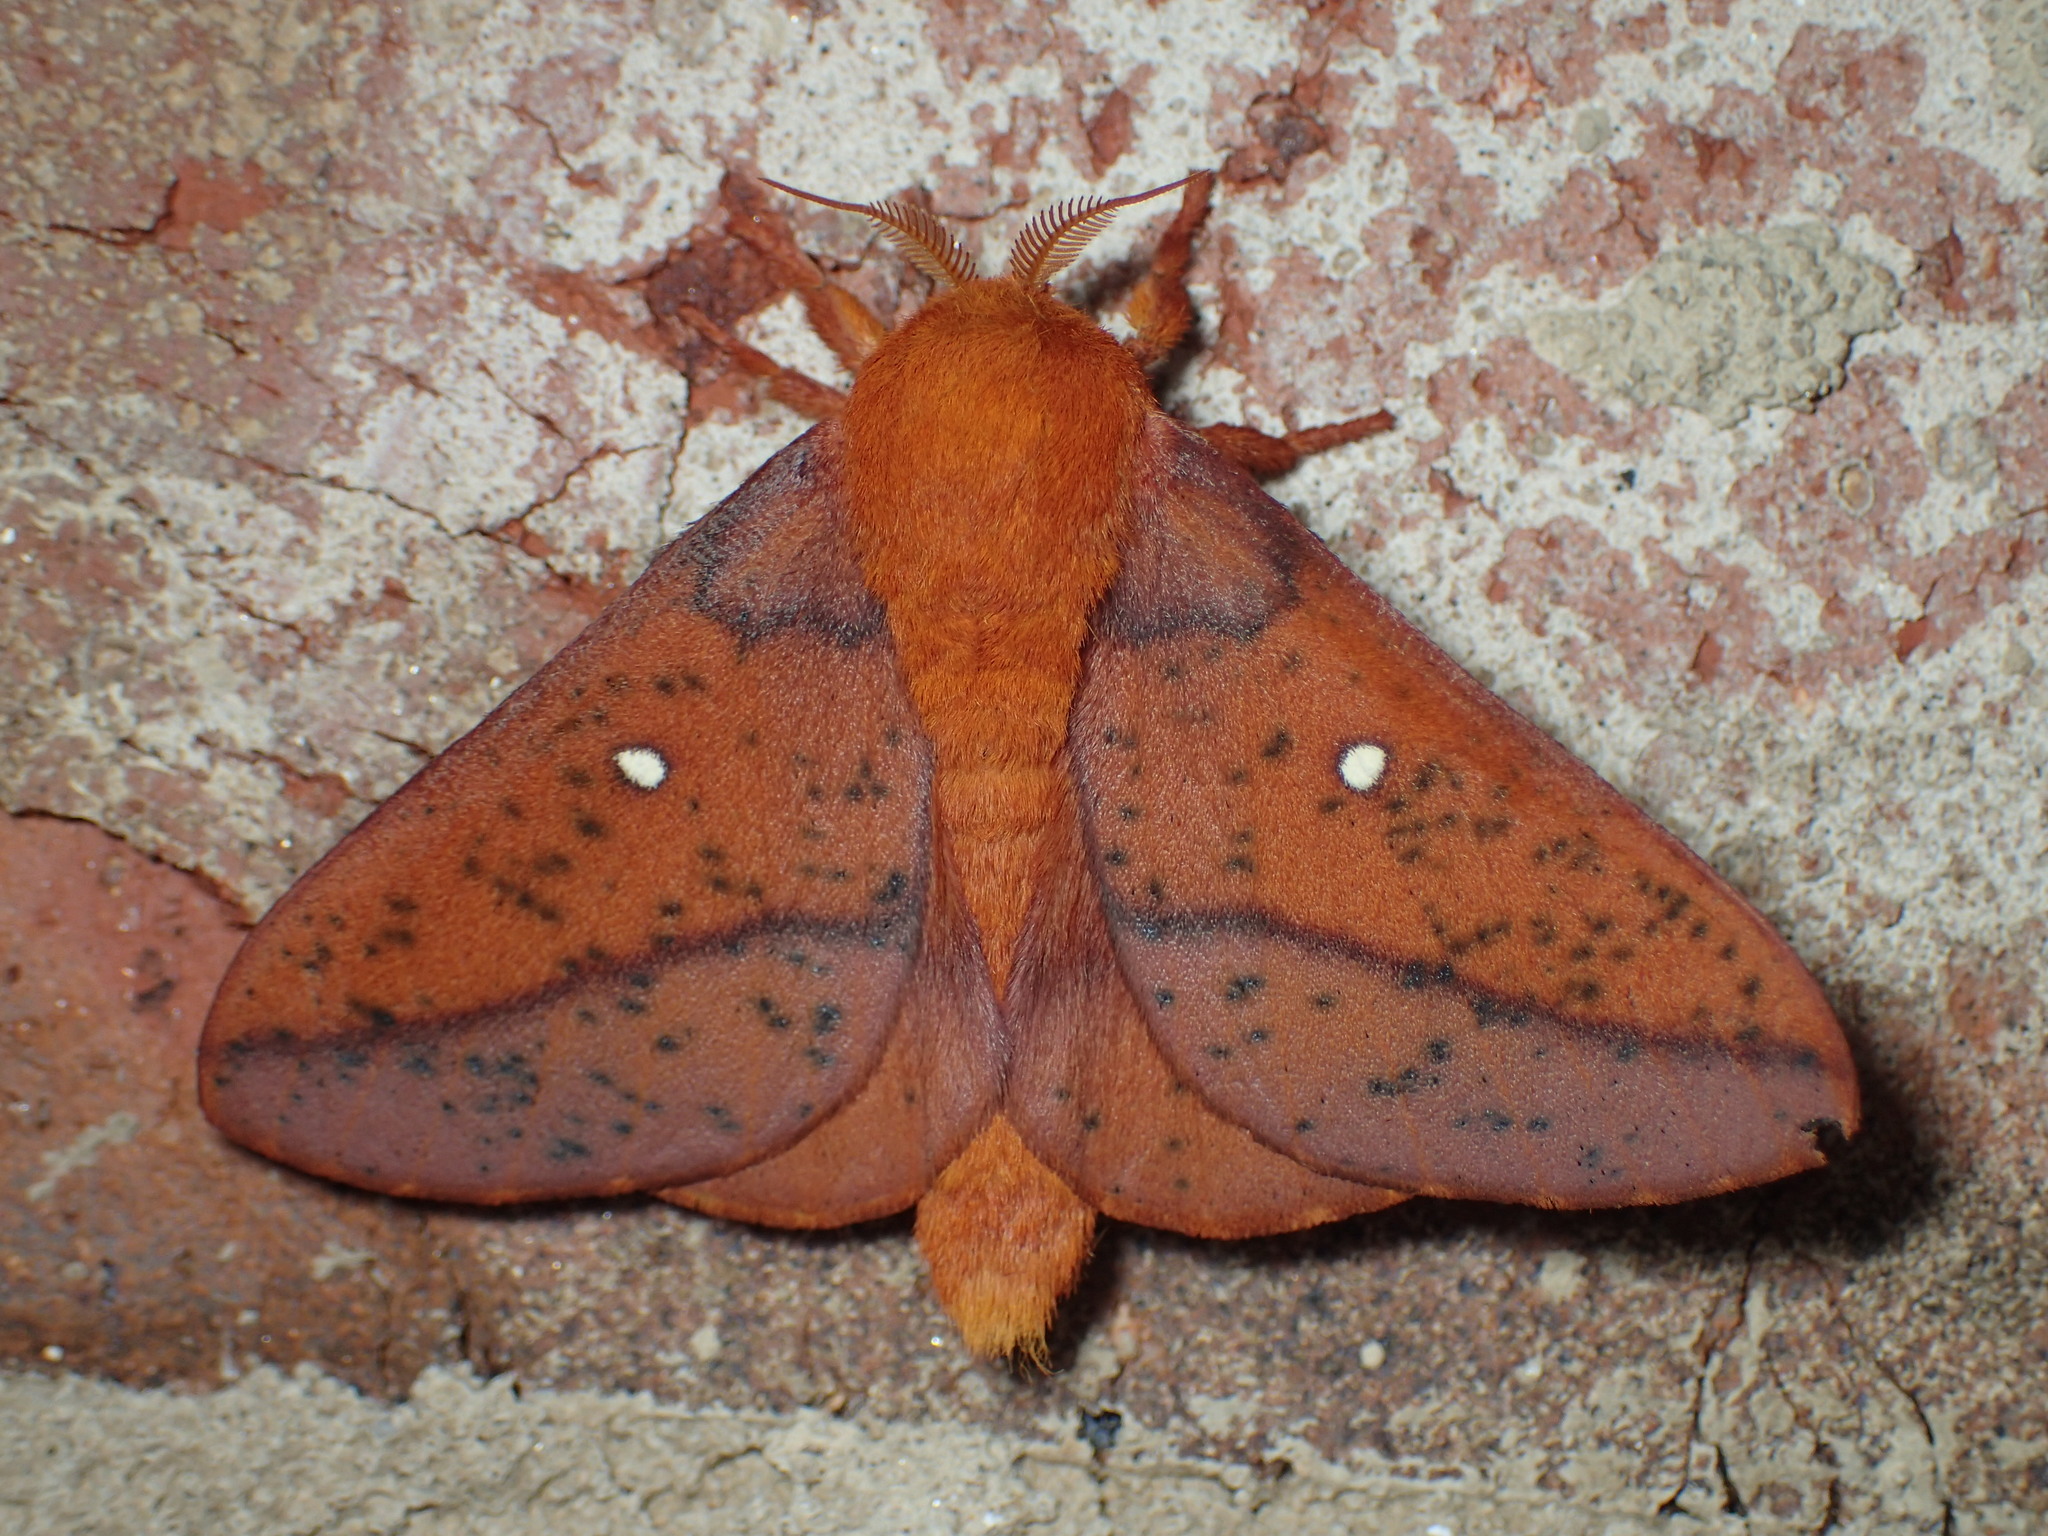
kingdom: Animalia
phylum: Arthropoda
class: Insecta
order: Lepidoptera
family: Saturniidae
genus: Anisota
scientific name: Anisota stigma
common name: Spiny oakworm moth
